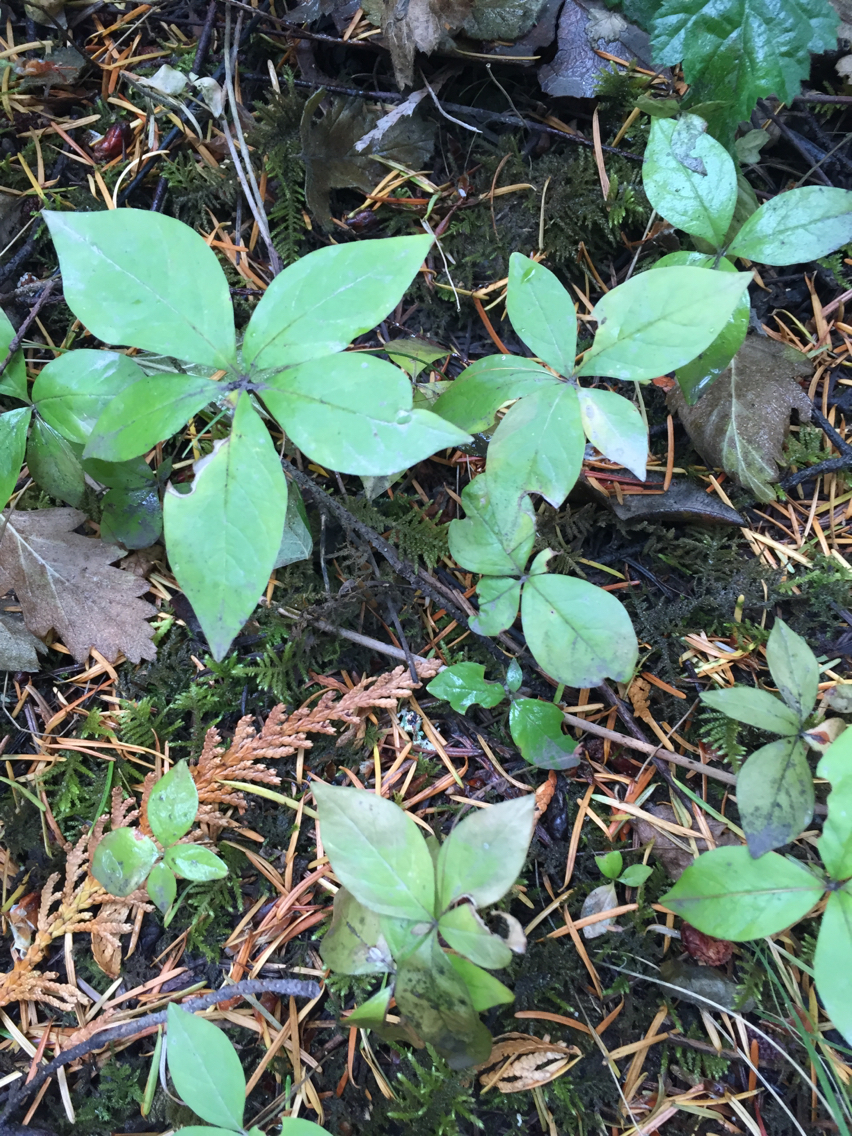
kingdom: Plantae
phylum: Tracheophyta
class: Magnoliopsida
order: Ericales
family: Primulaceae
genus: Lysimachia
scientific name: Lysimachia latifolia
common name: Pacific starflower
